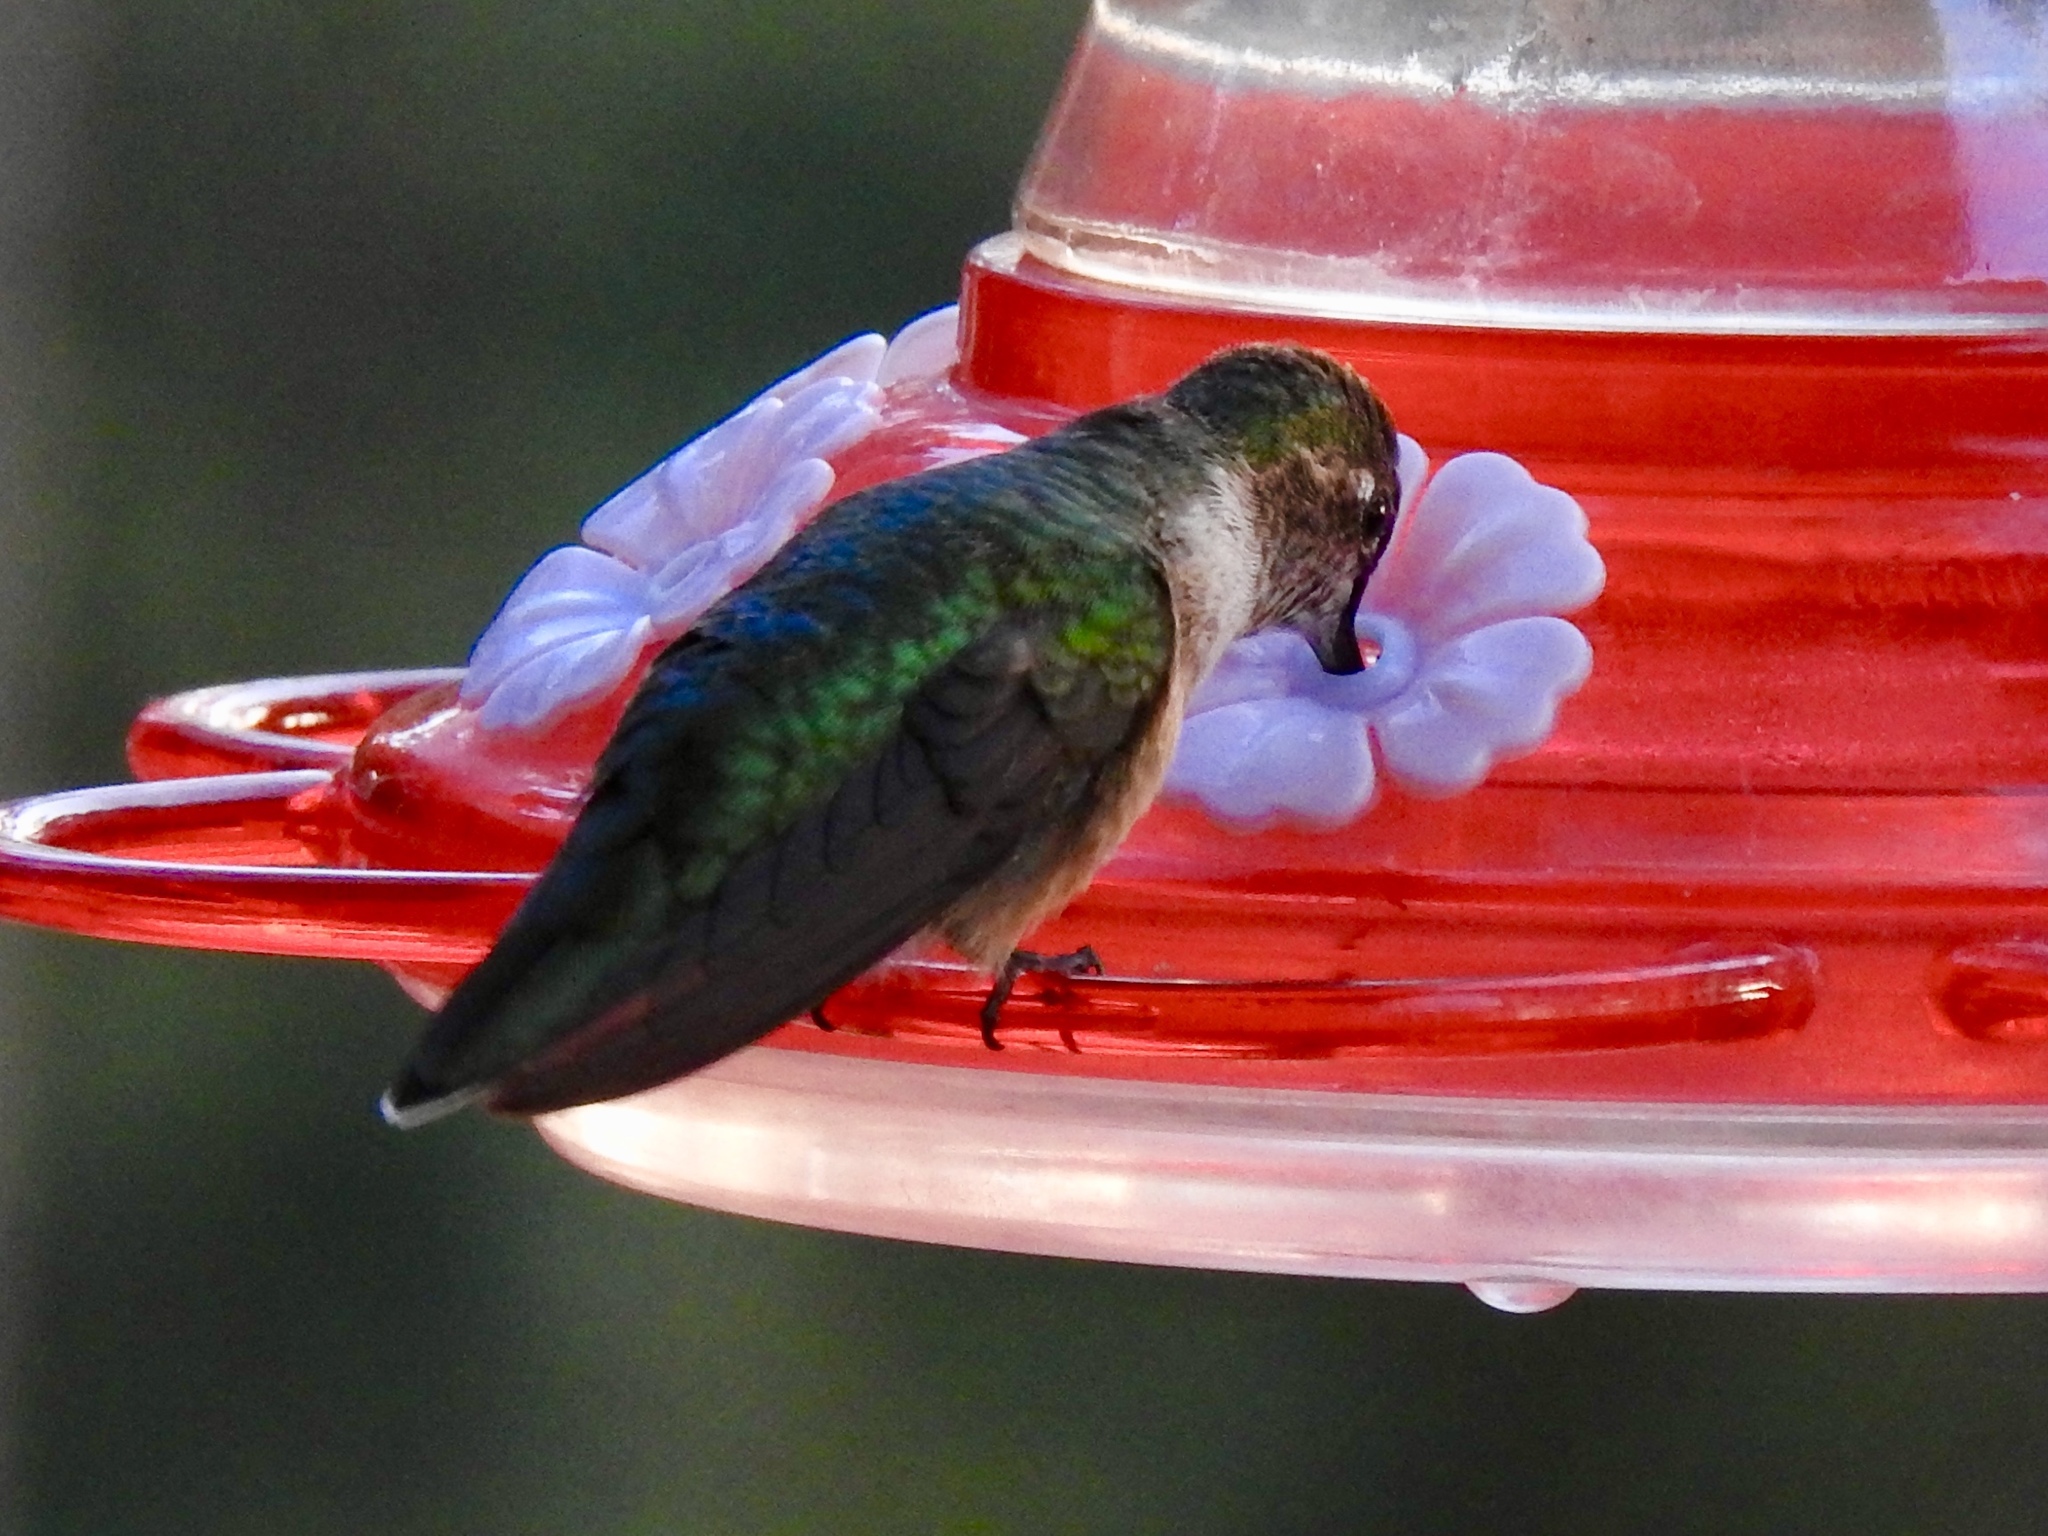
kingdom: Animalia
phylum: Chordata
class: Aves
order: Apodiformes
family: Trochilidae
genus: Selasphorus
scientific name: Selasphorus platycercus
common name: Broad-tailed hummingbird
